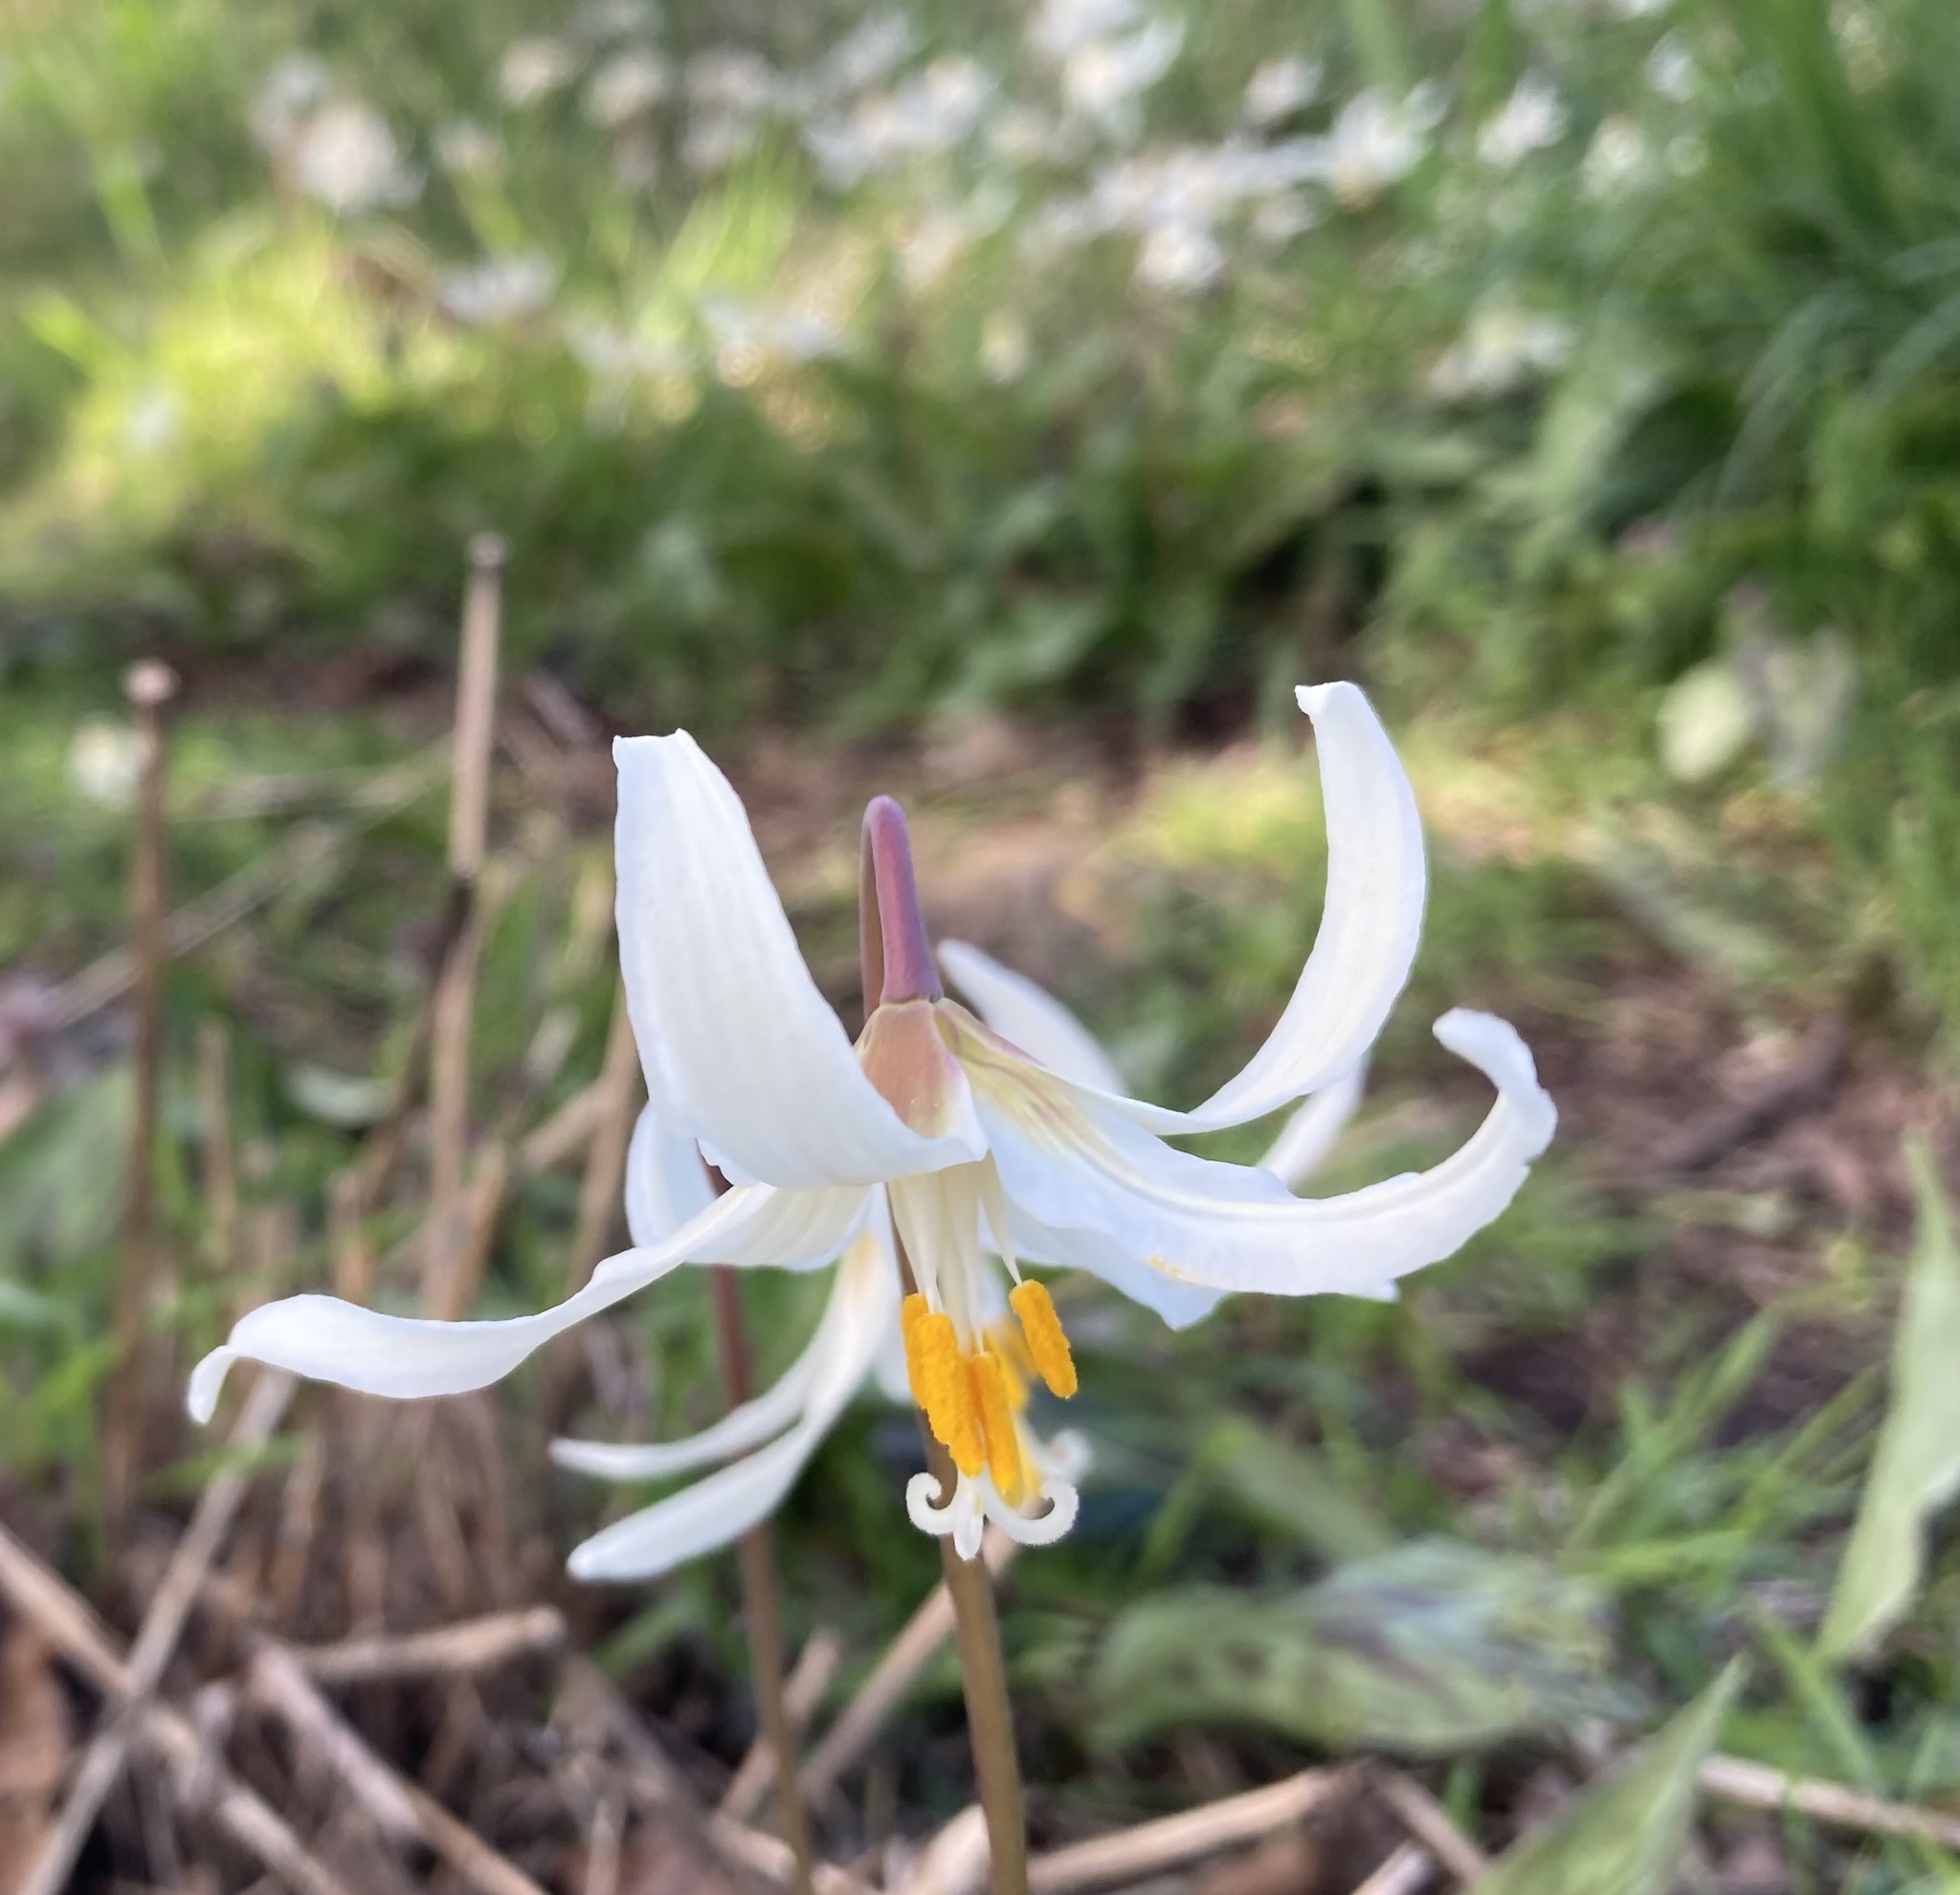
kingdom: Plantae
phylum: Tracheophyta
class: Liliopsida
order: Liliales
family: Liliaceae
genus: Erythronium
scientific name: Erythronium oregonum
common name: Giant adder's-tongue
